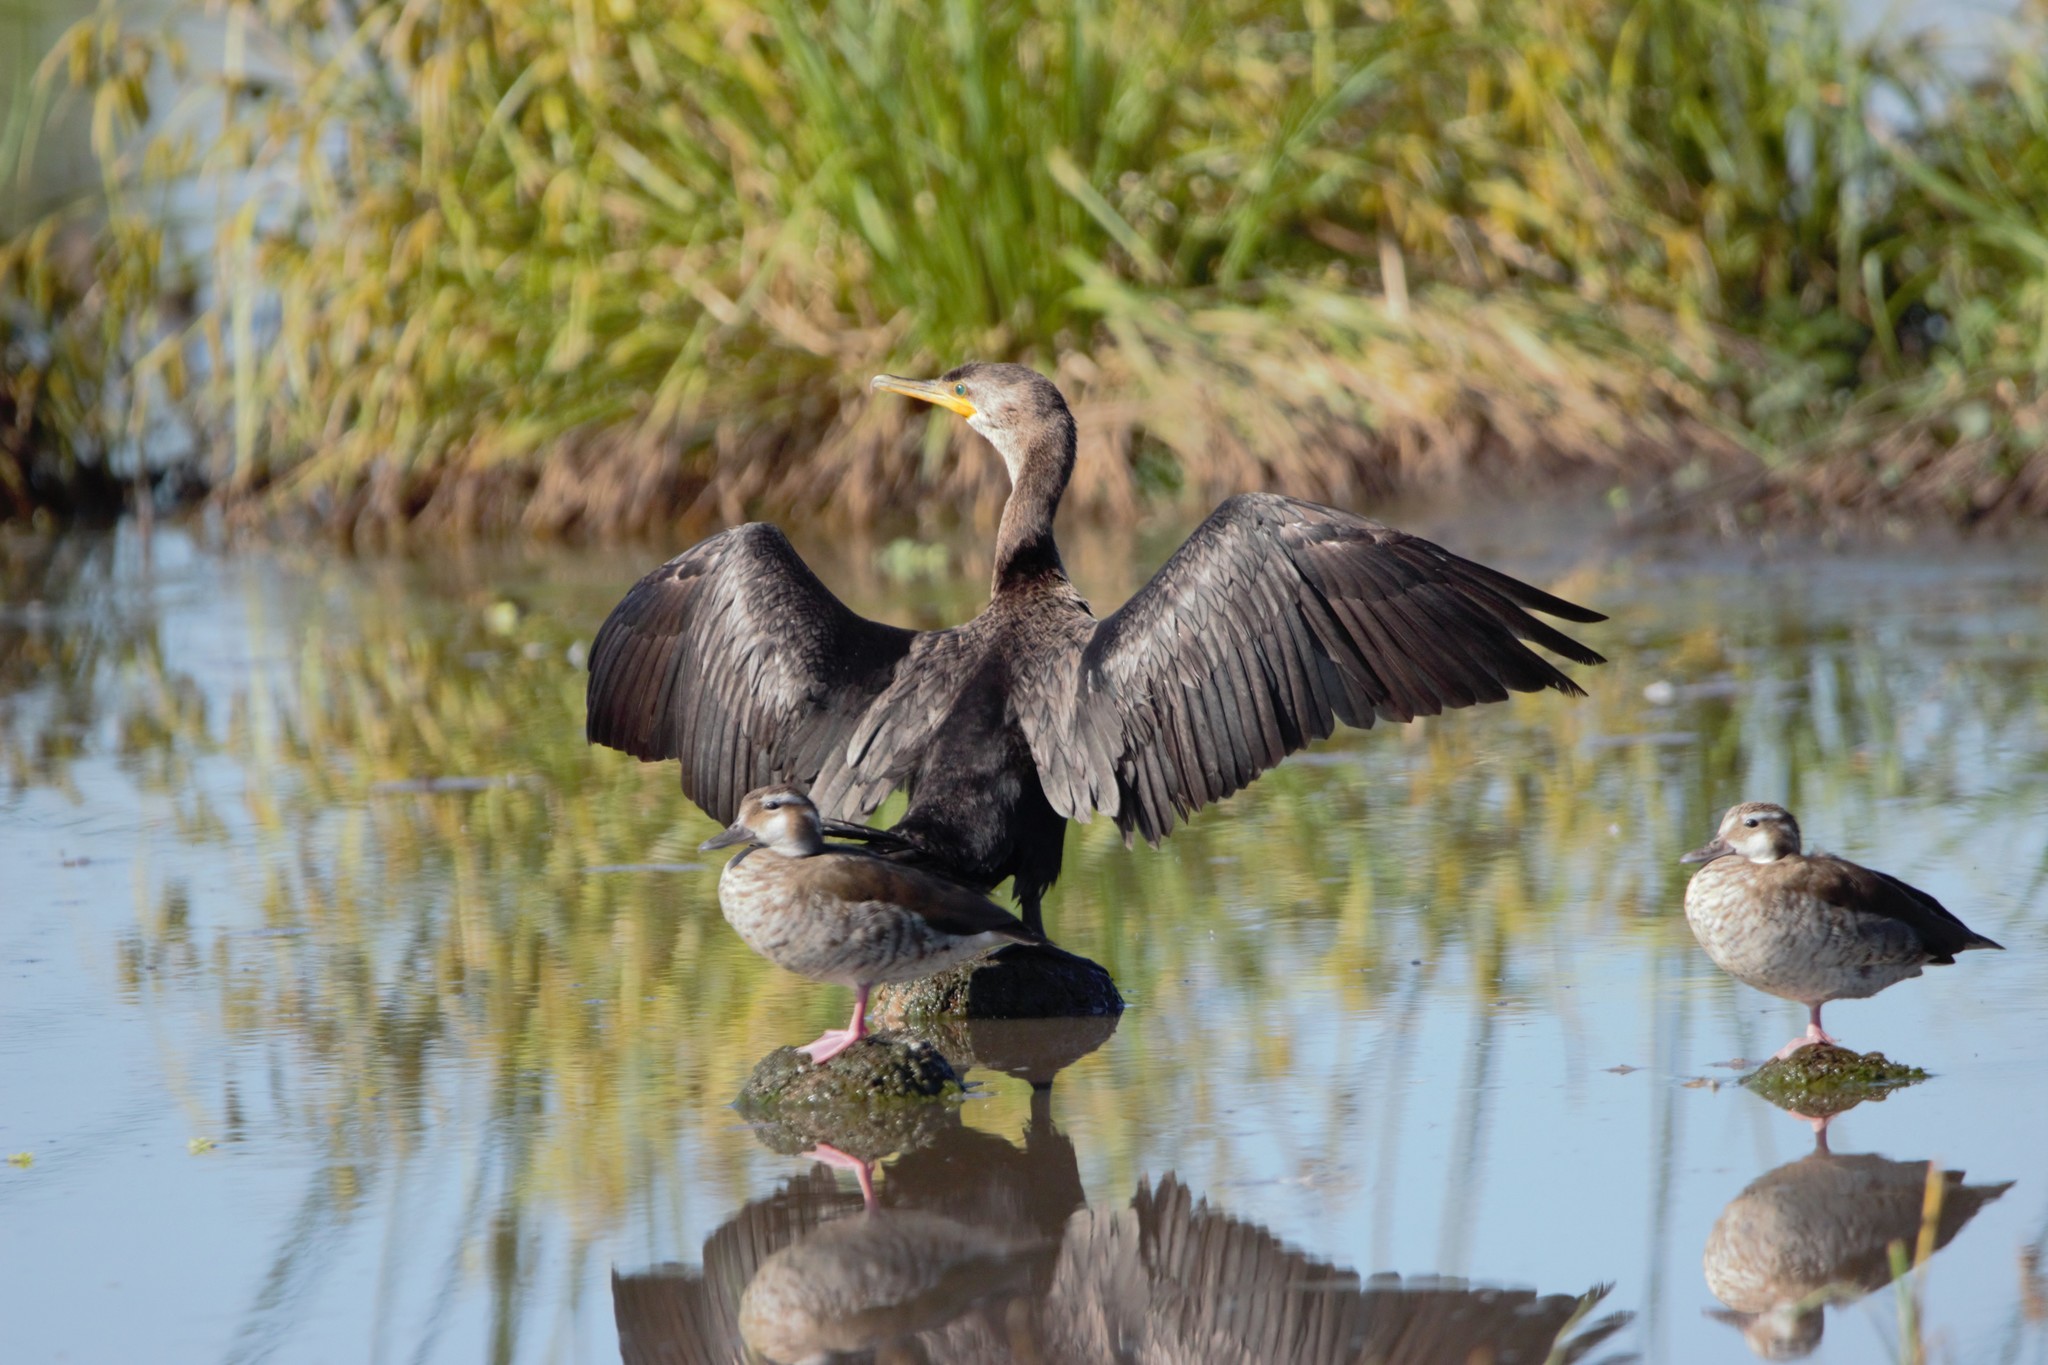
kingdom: Animalia
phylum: Chordata
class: Aves
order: Suliformes
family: Phalacrocoracidae
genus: Phalacrocorax
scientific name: Phalacrocorax brasilianus
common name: Neotropic cormorant
